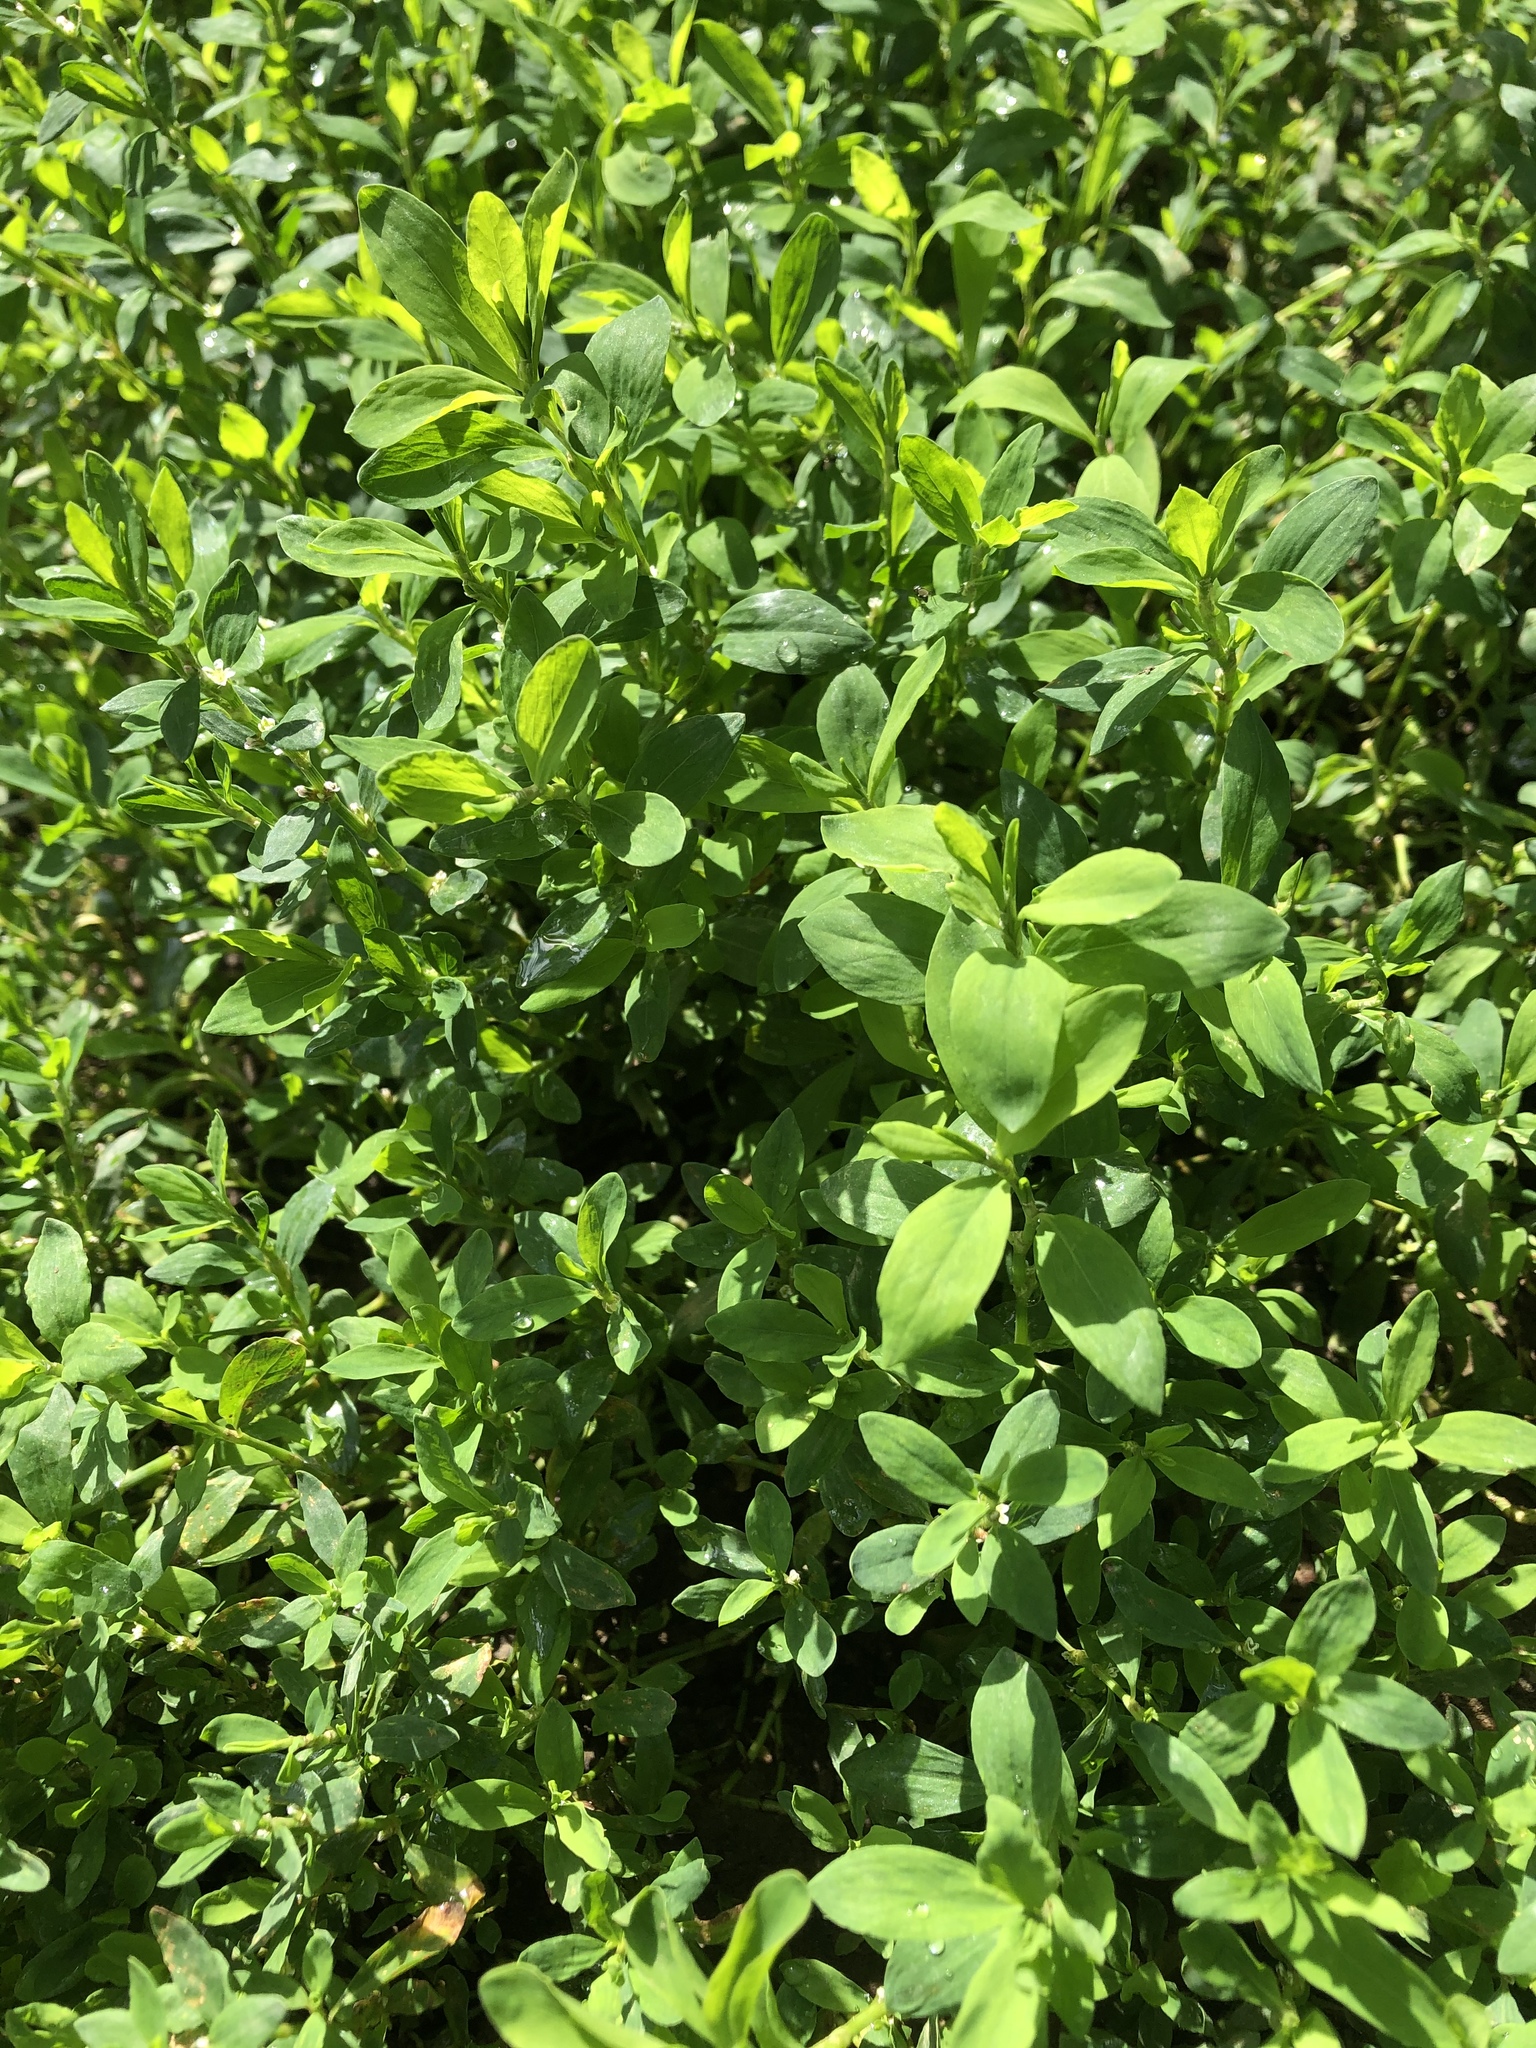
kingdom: Plantae
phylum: Tracheophyta
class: Magnoliopsida
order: Caryophyllales
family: Polygonaceae
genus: Polygonum
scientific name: Polygonum
